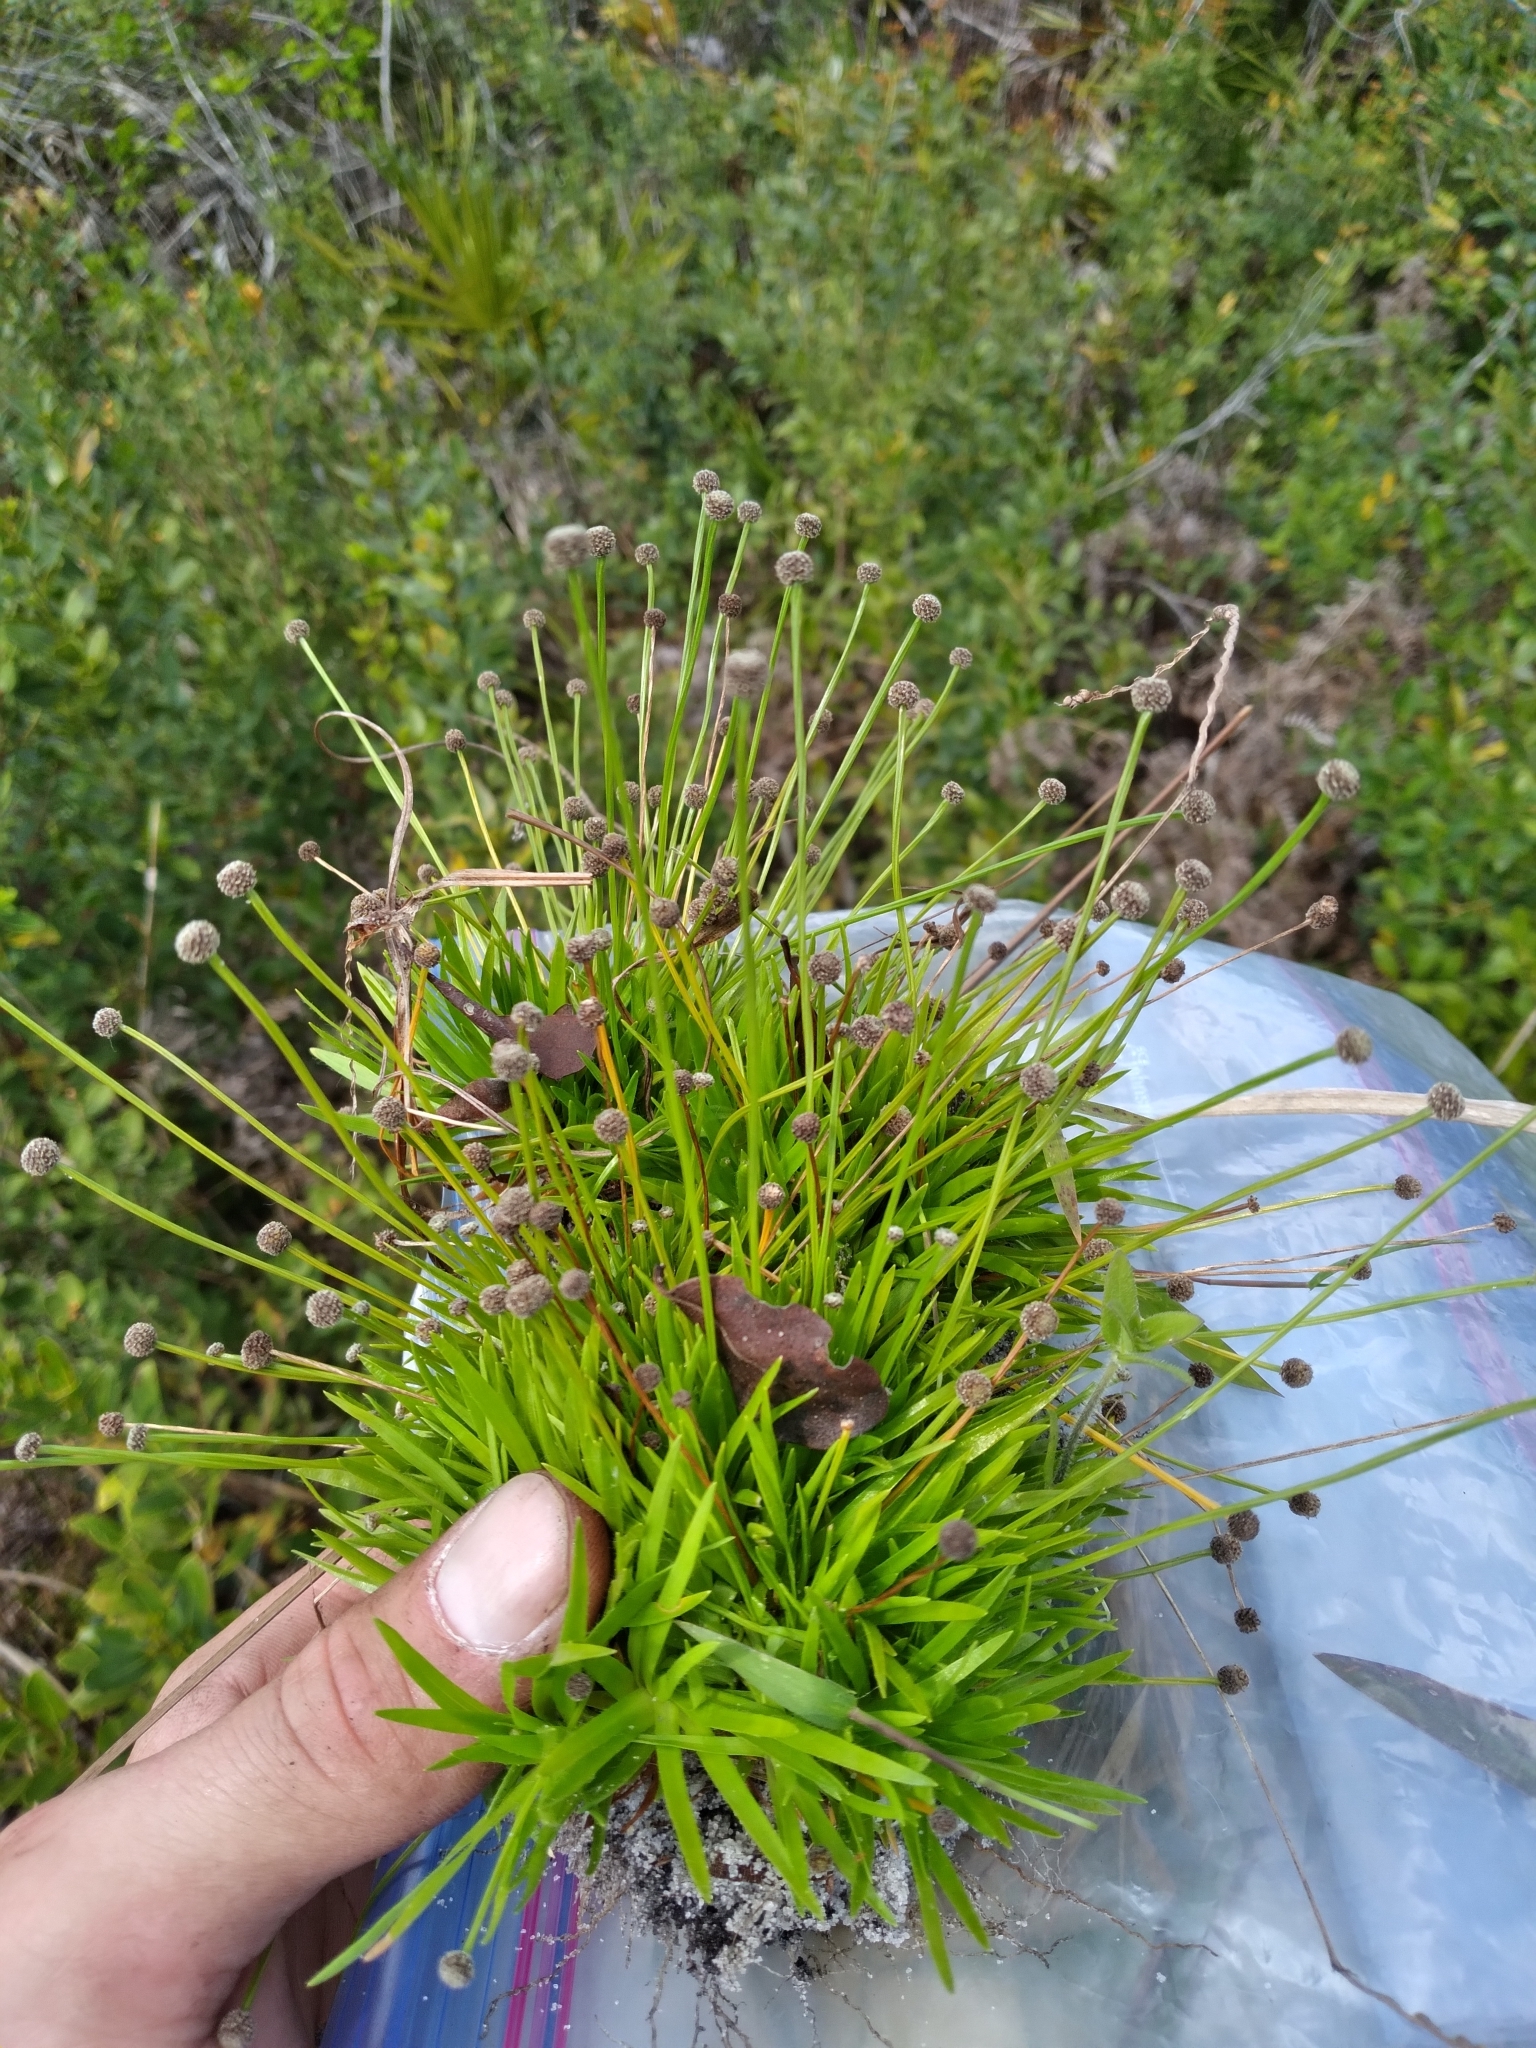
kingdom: Plantae
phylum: Tracheophyta
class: Liliopsida
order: Poales
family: Eriocaulaceae
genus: Paepalanthus
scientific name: Paepalanthus minus
